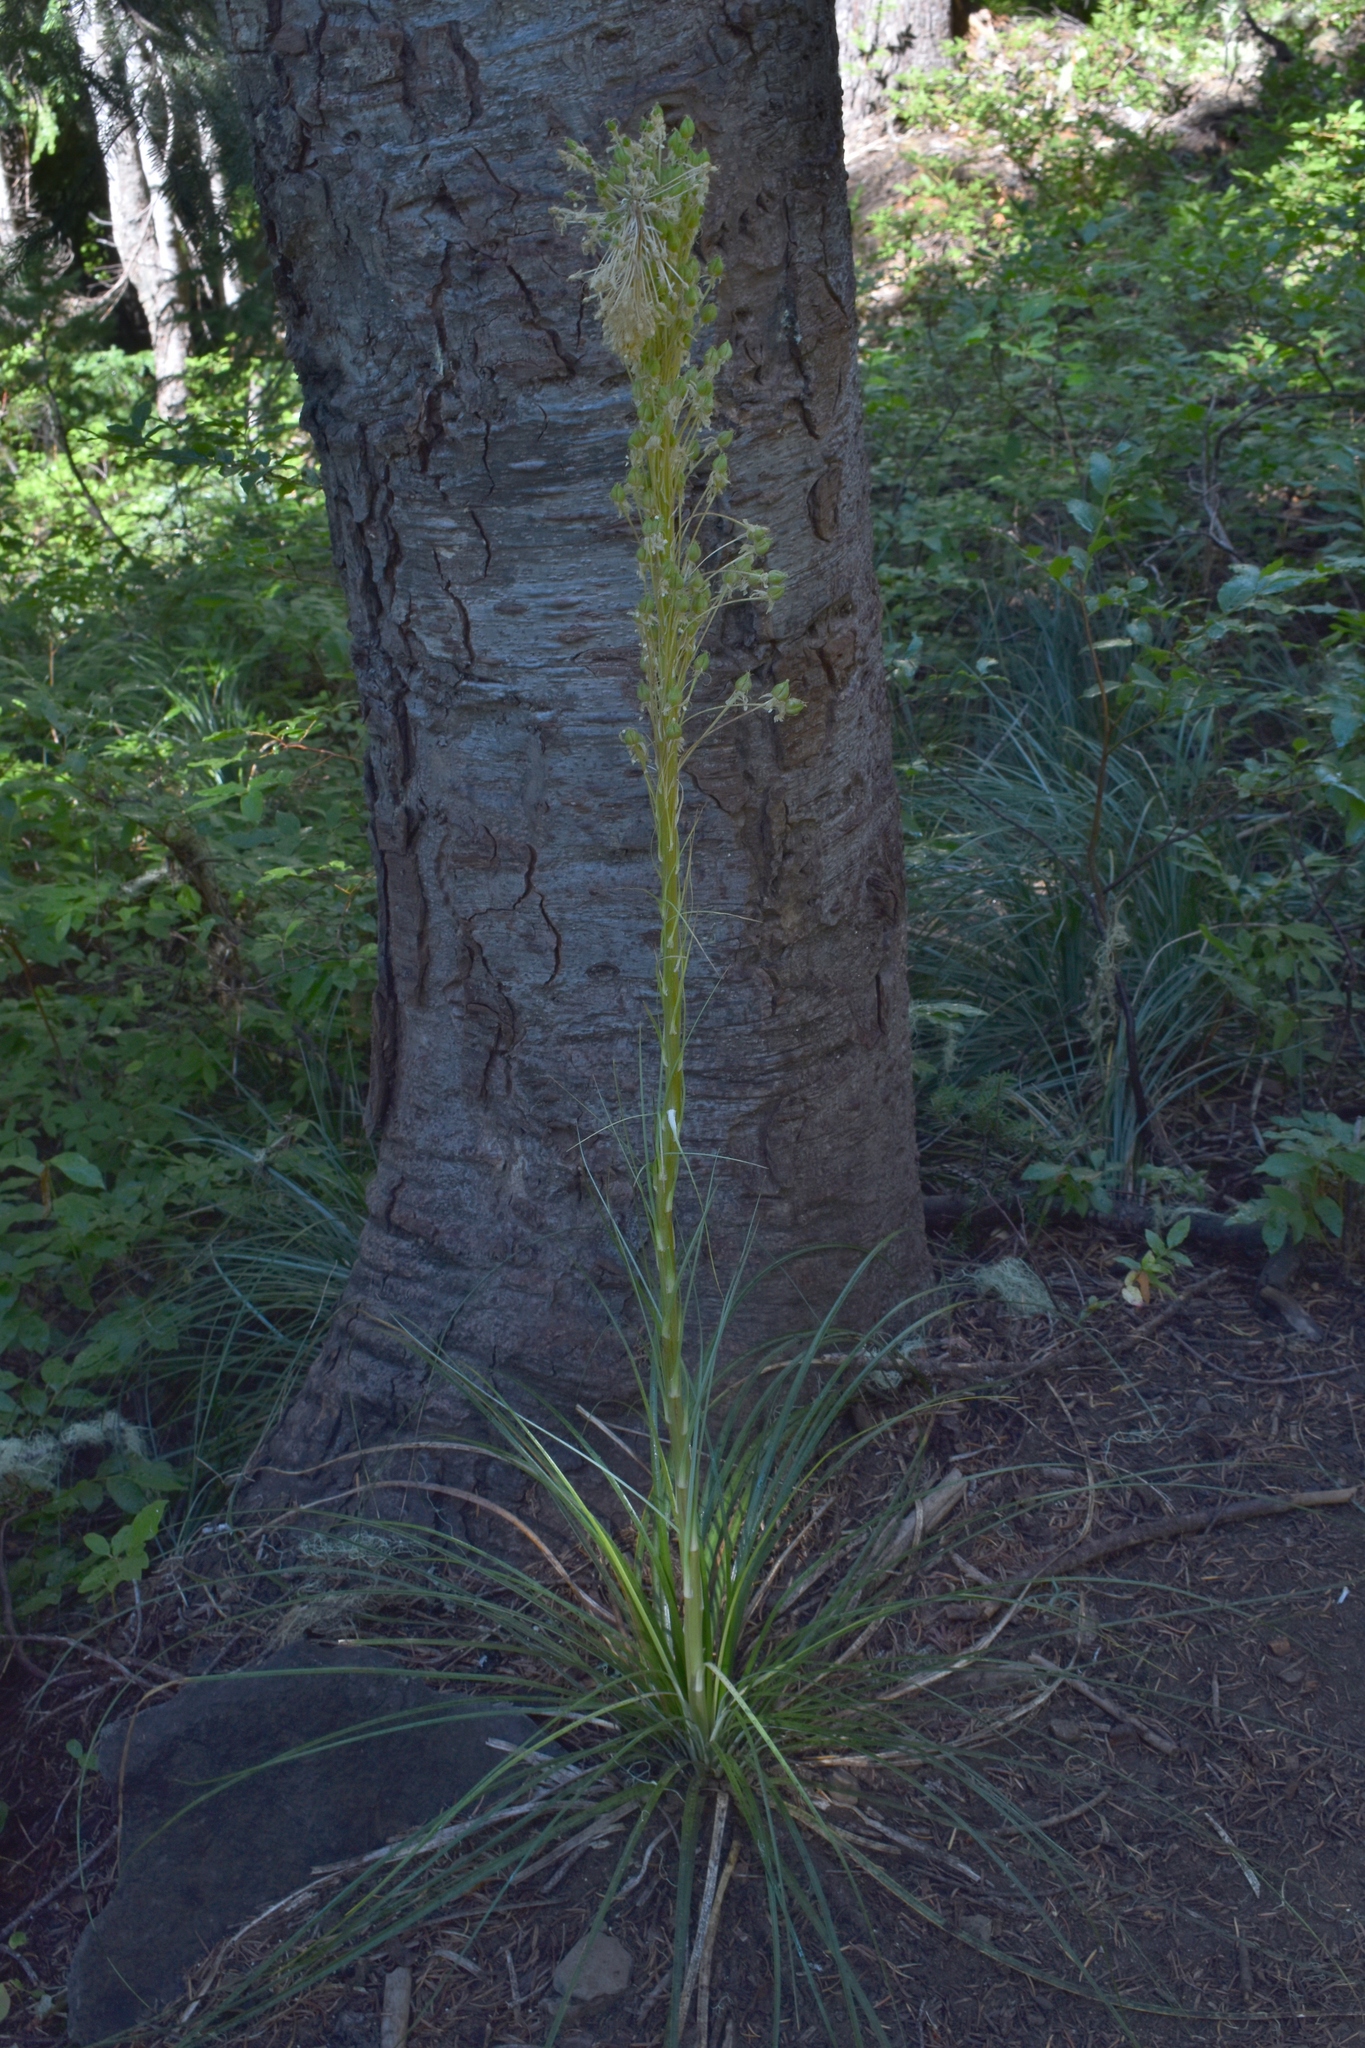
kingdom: Plantae
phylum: Tracheophyta
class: Liliopsida
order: Liliales
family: Melanthiaceae
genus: Xerophyllum
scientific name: Xerophyllum tenax
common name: Bear-grass
